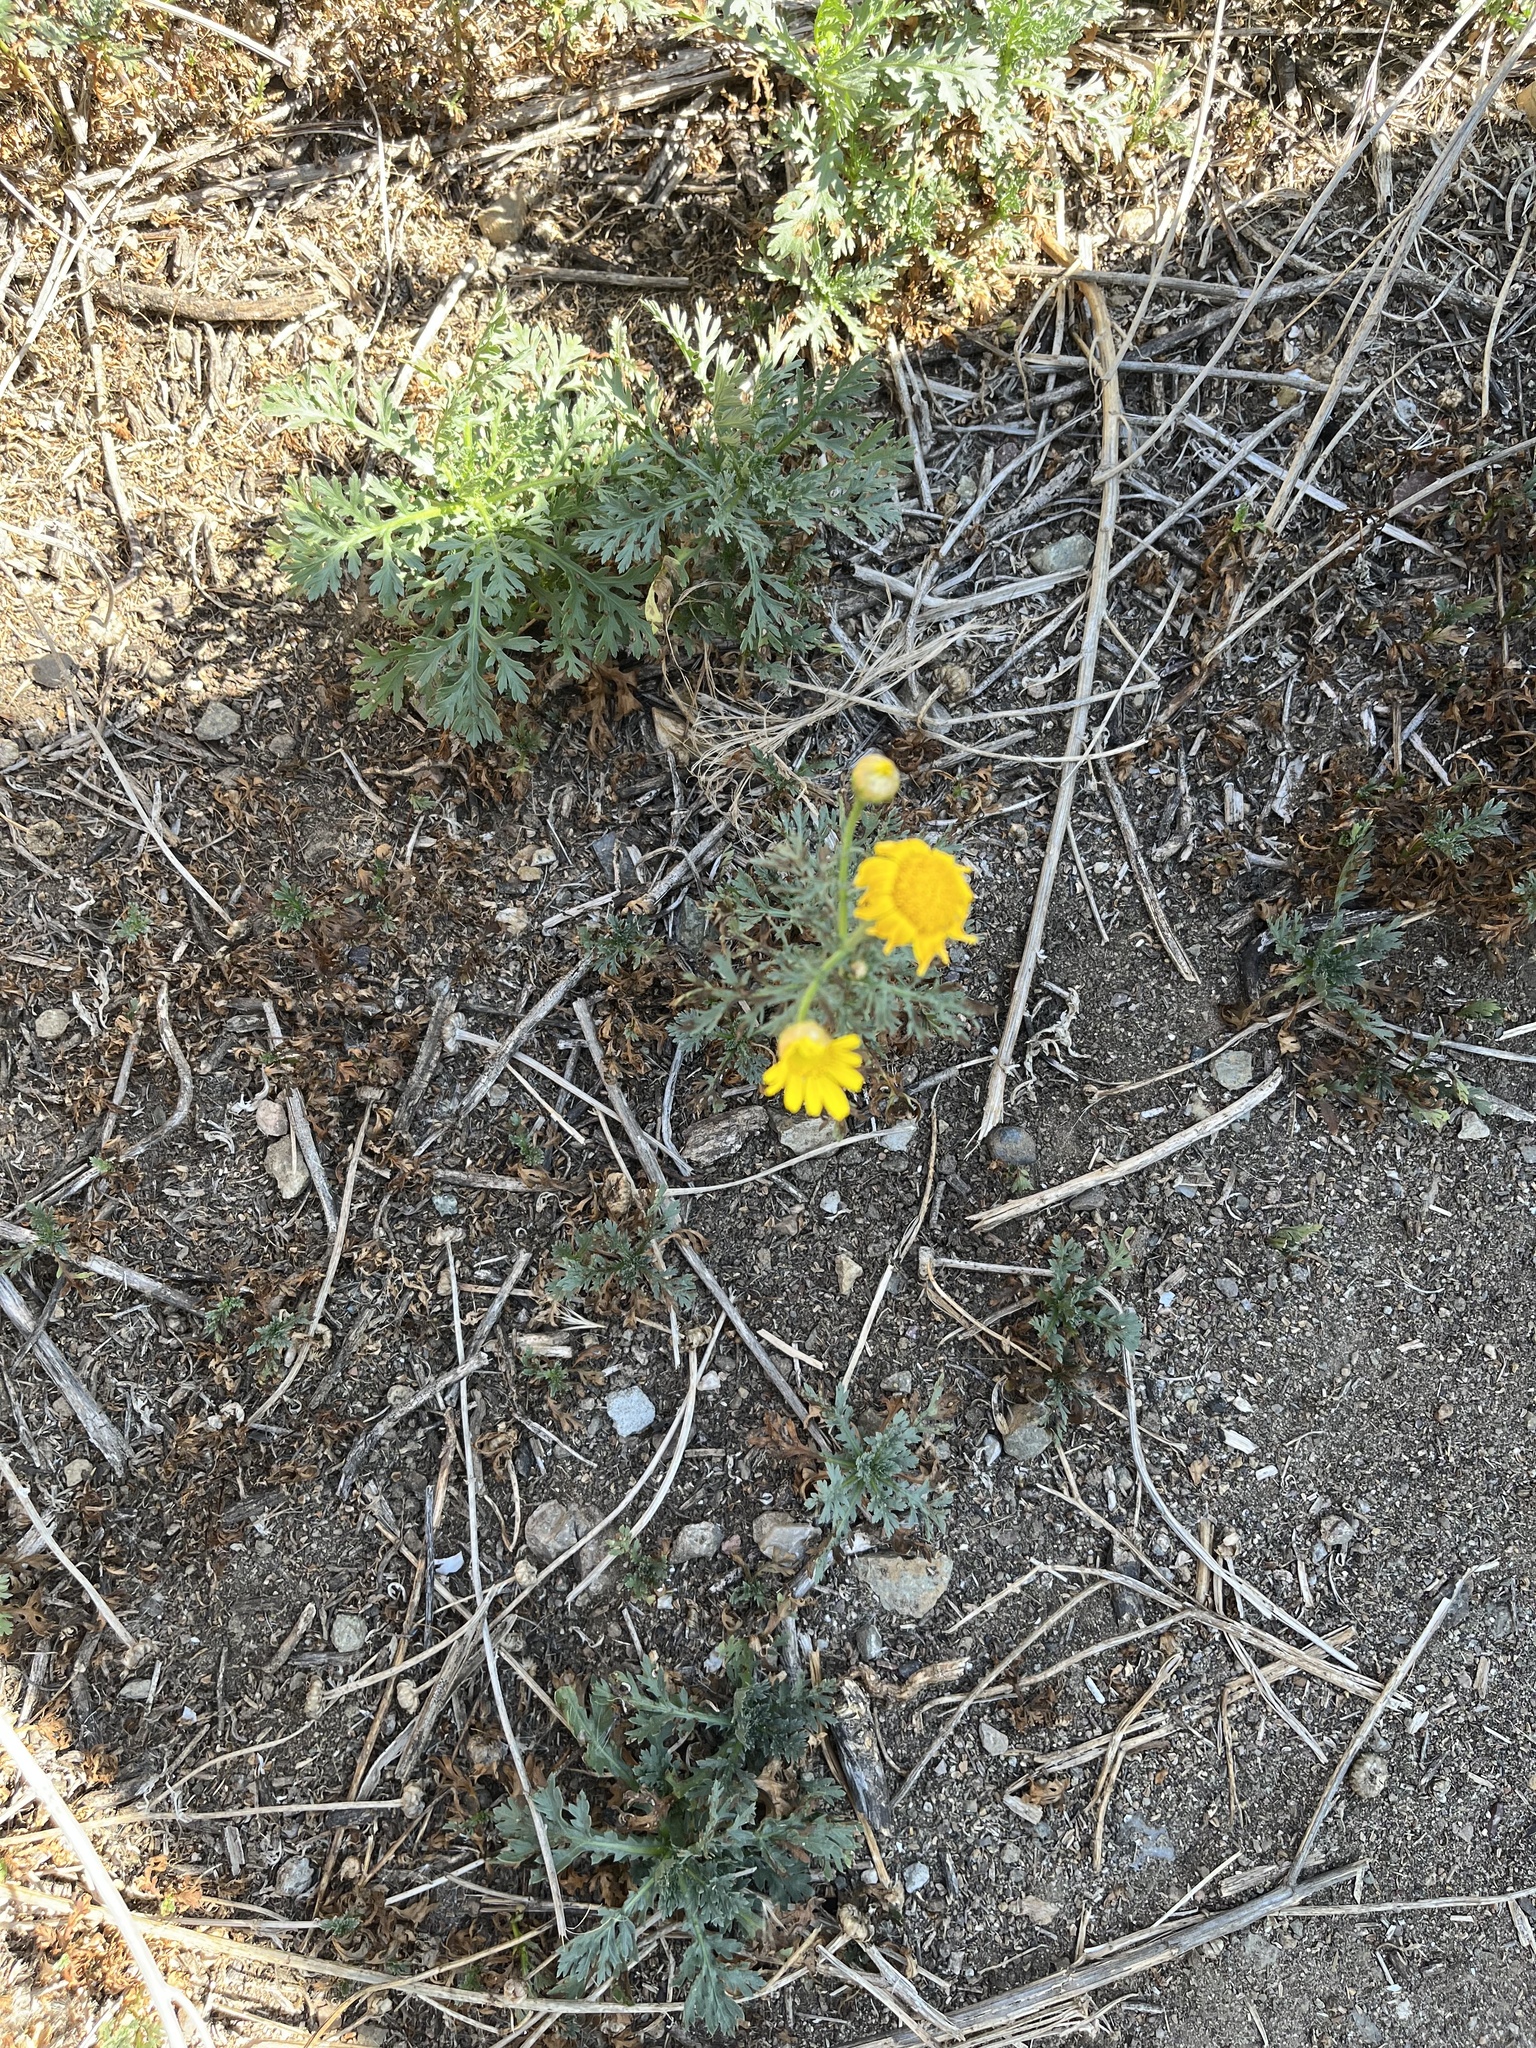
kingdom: Plantae
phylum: Tracheophyta
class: Magnoliopsida
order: Asterales
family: Asteraceae
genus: Glebionis
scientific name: Glebionis coronaria
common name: Crowndaisy
